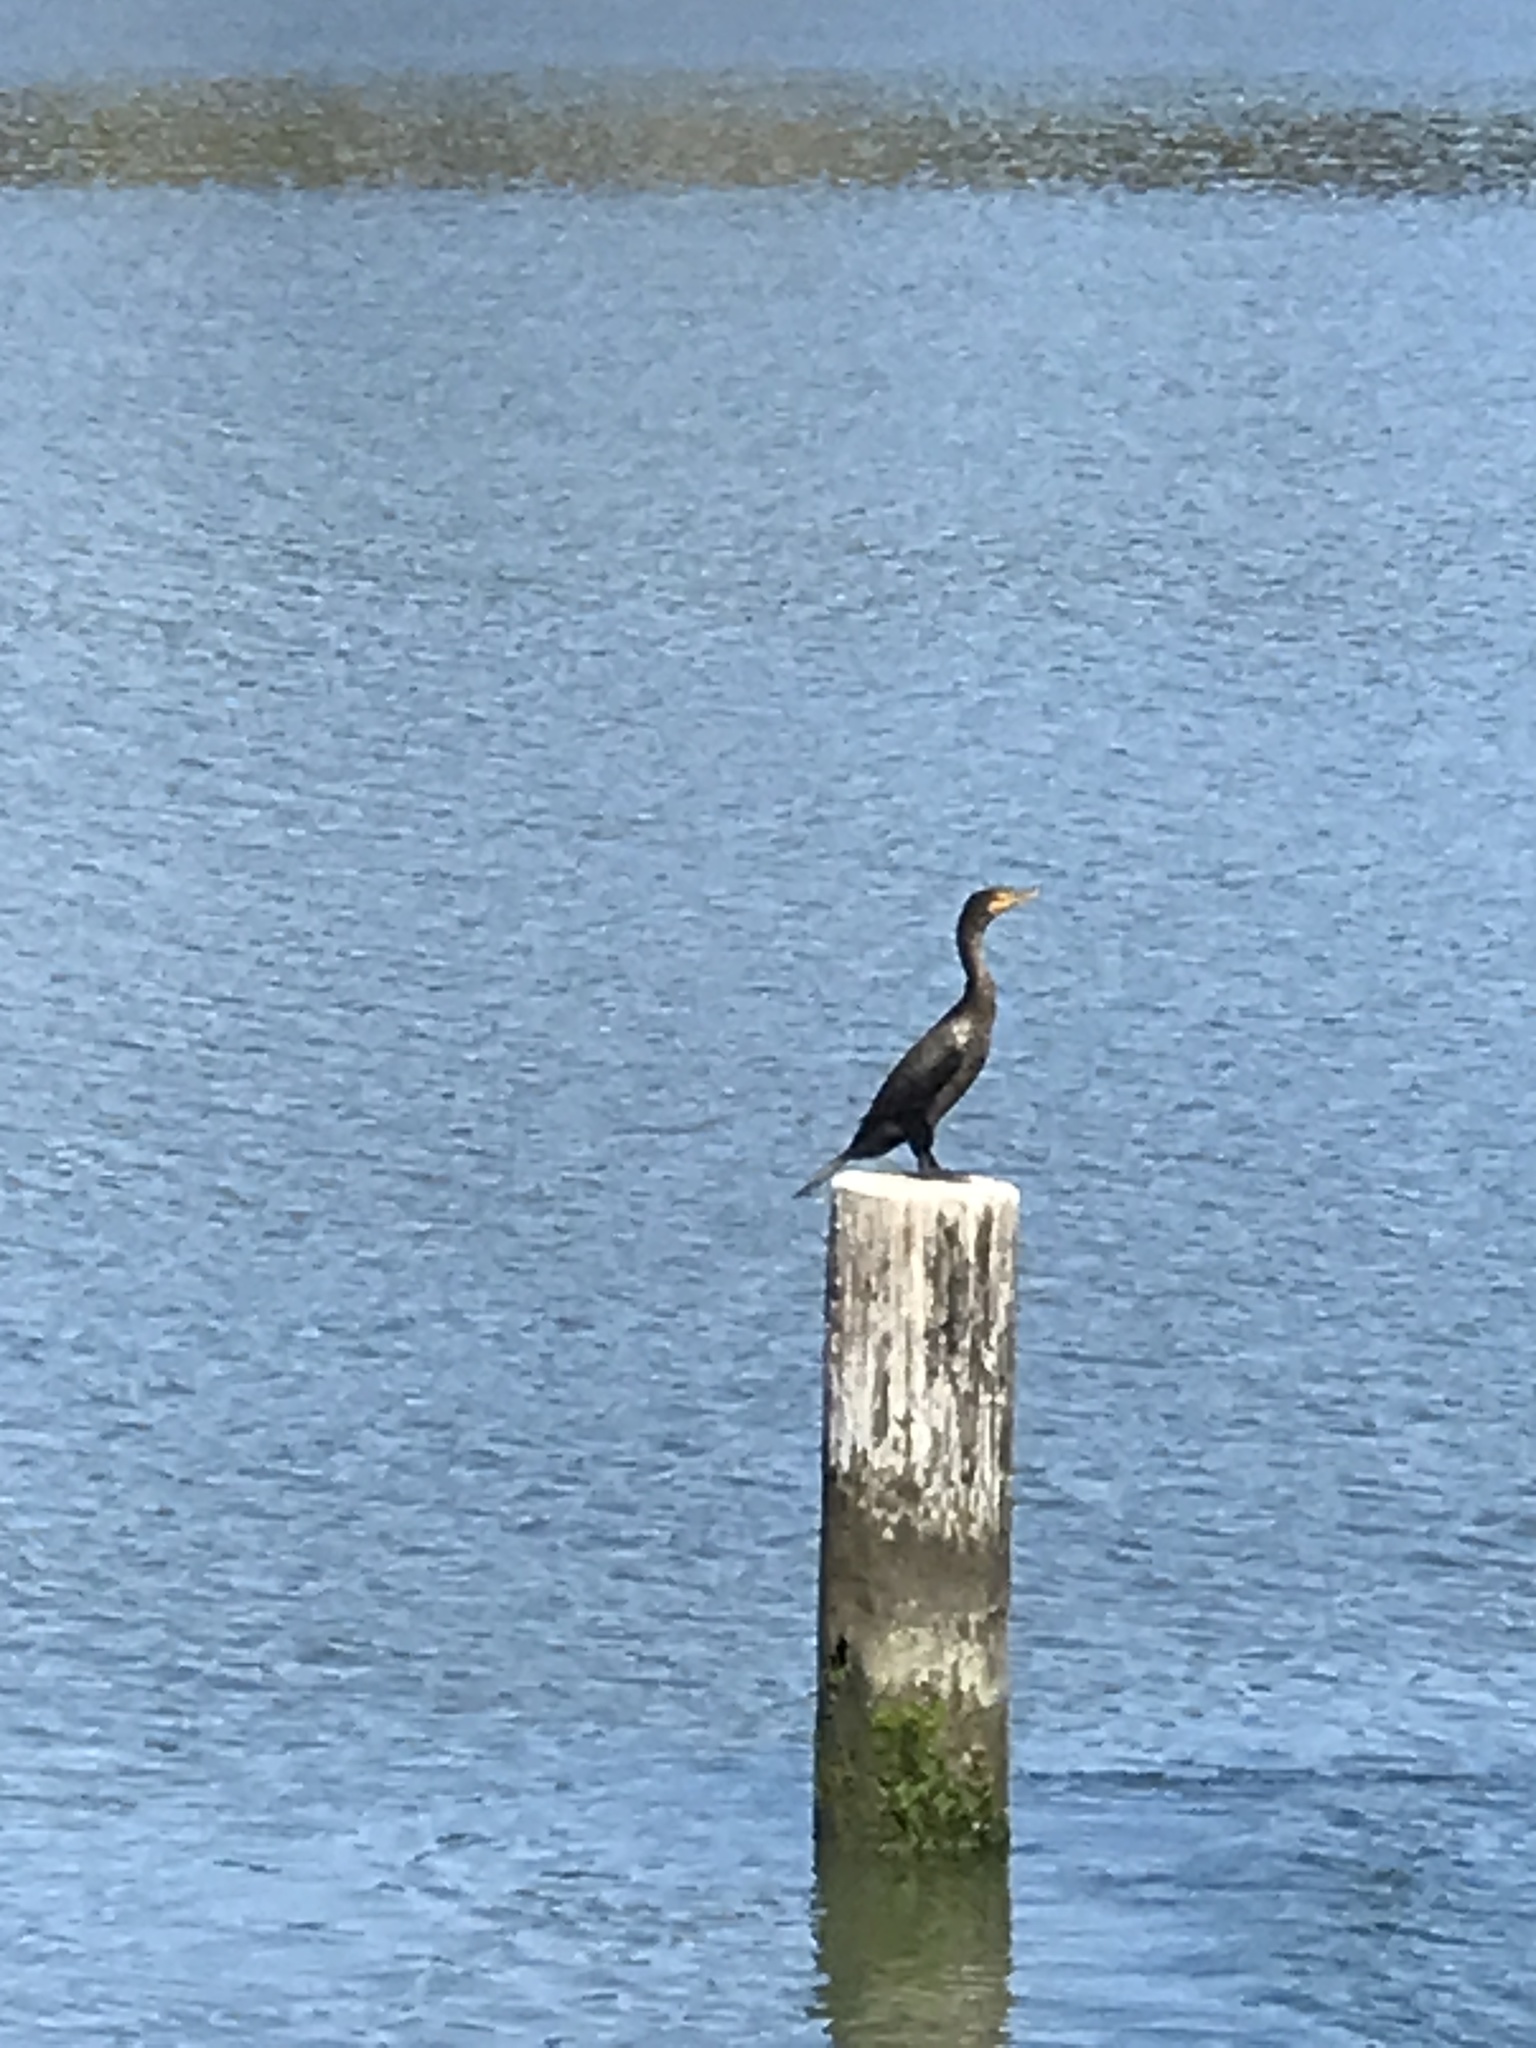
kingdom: Animalia
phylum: Chordata
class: Aves
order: Suliformes
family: Phalacrocoracidae
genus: Phalacrocorax
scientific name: Phalacrocorax auritus
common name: Double-crested cormorant
